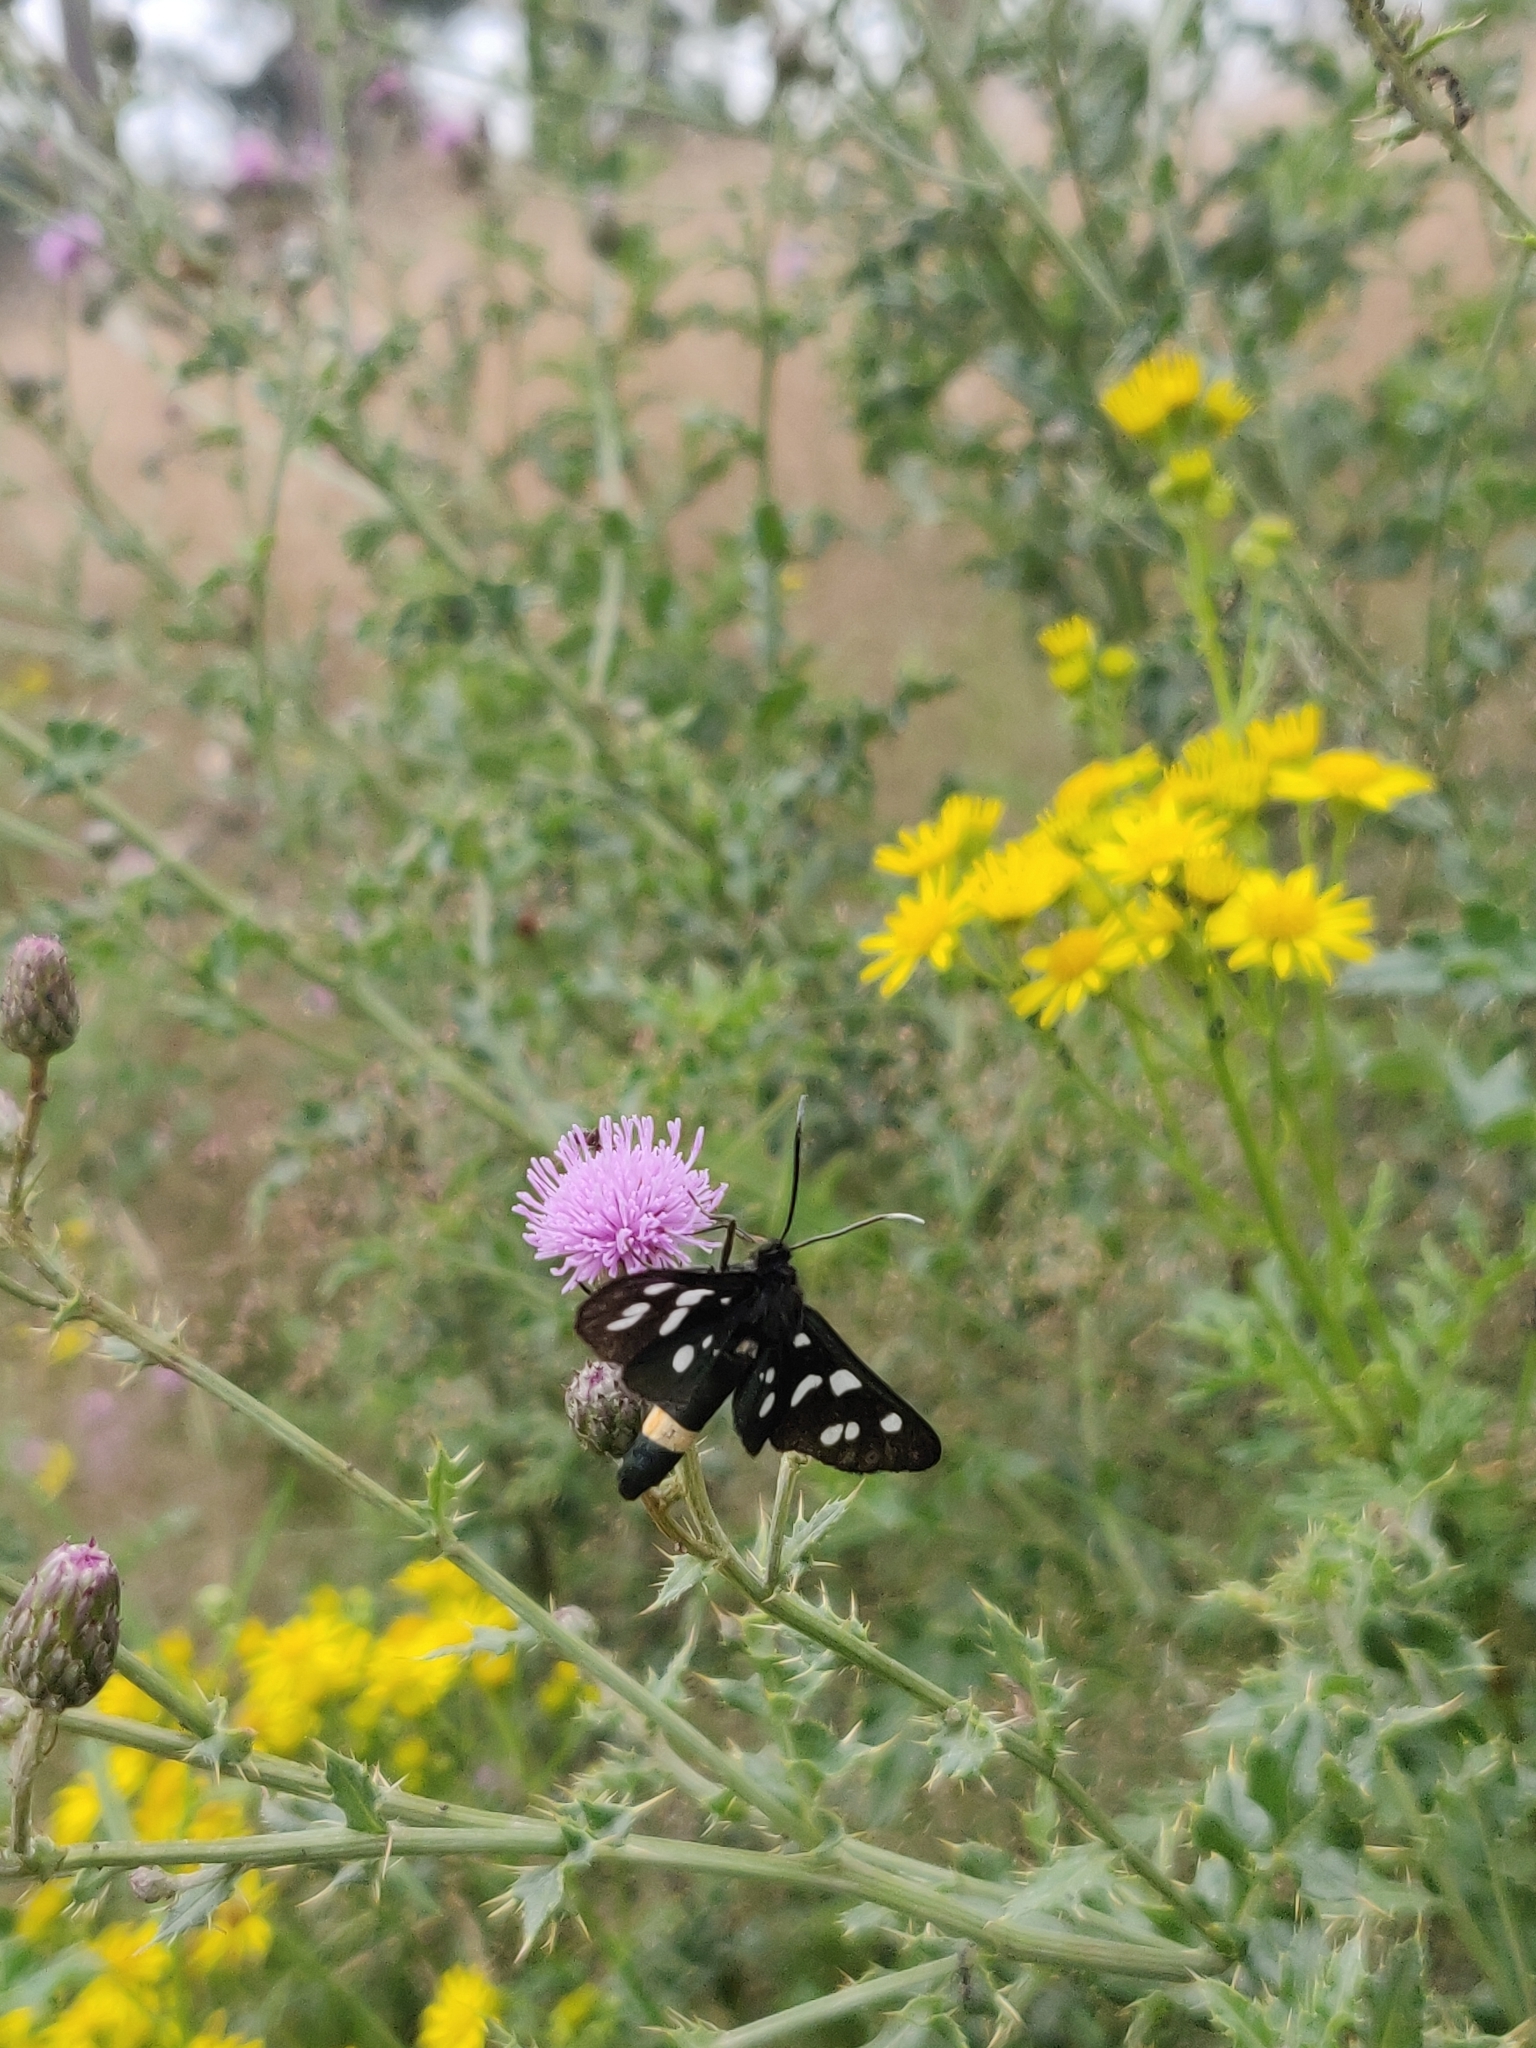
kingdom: Animalia
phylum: Arthropoda
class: Insecta
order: Lepidoptera
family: Erebidae
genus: Amata
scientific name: Amata phegea
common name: Nine-spotted
